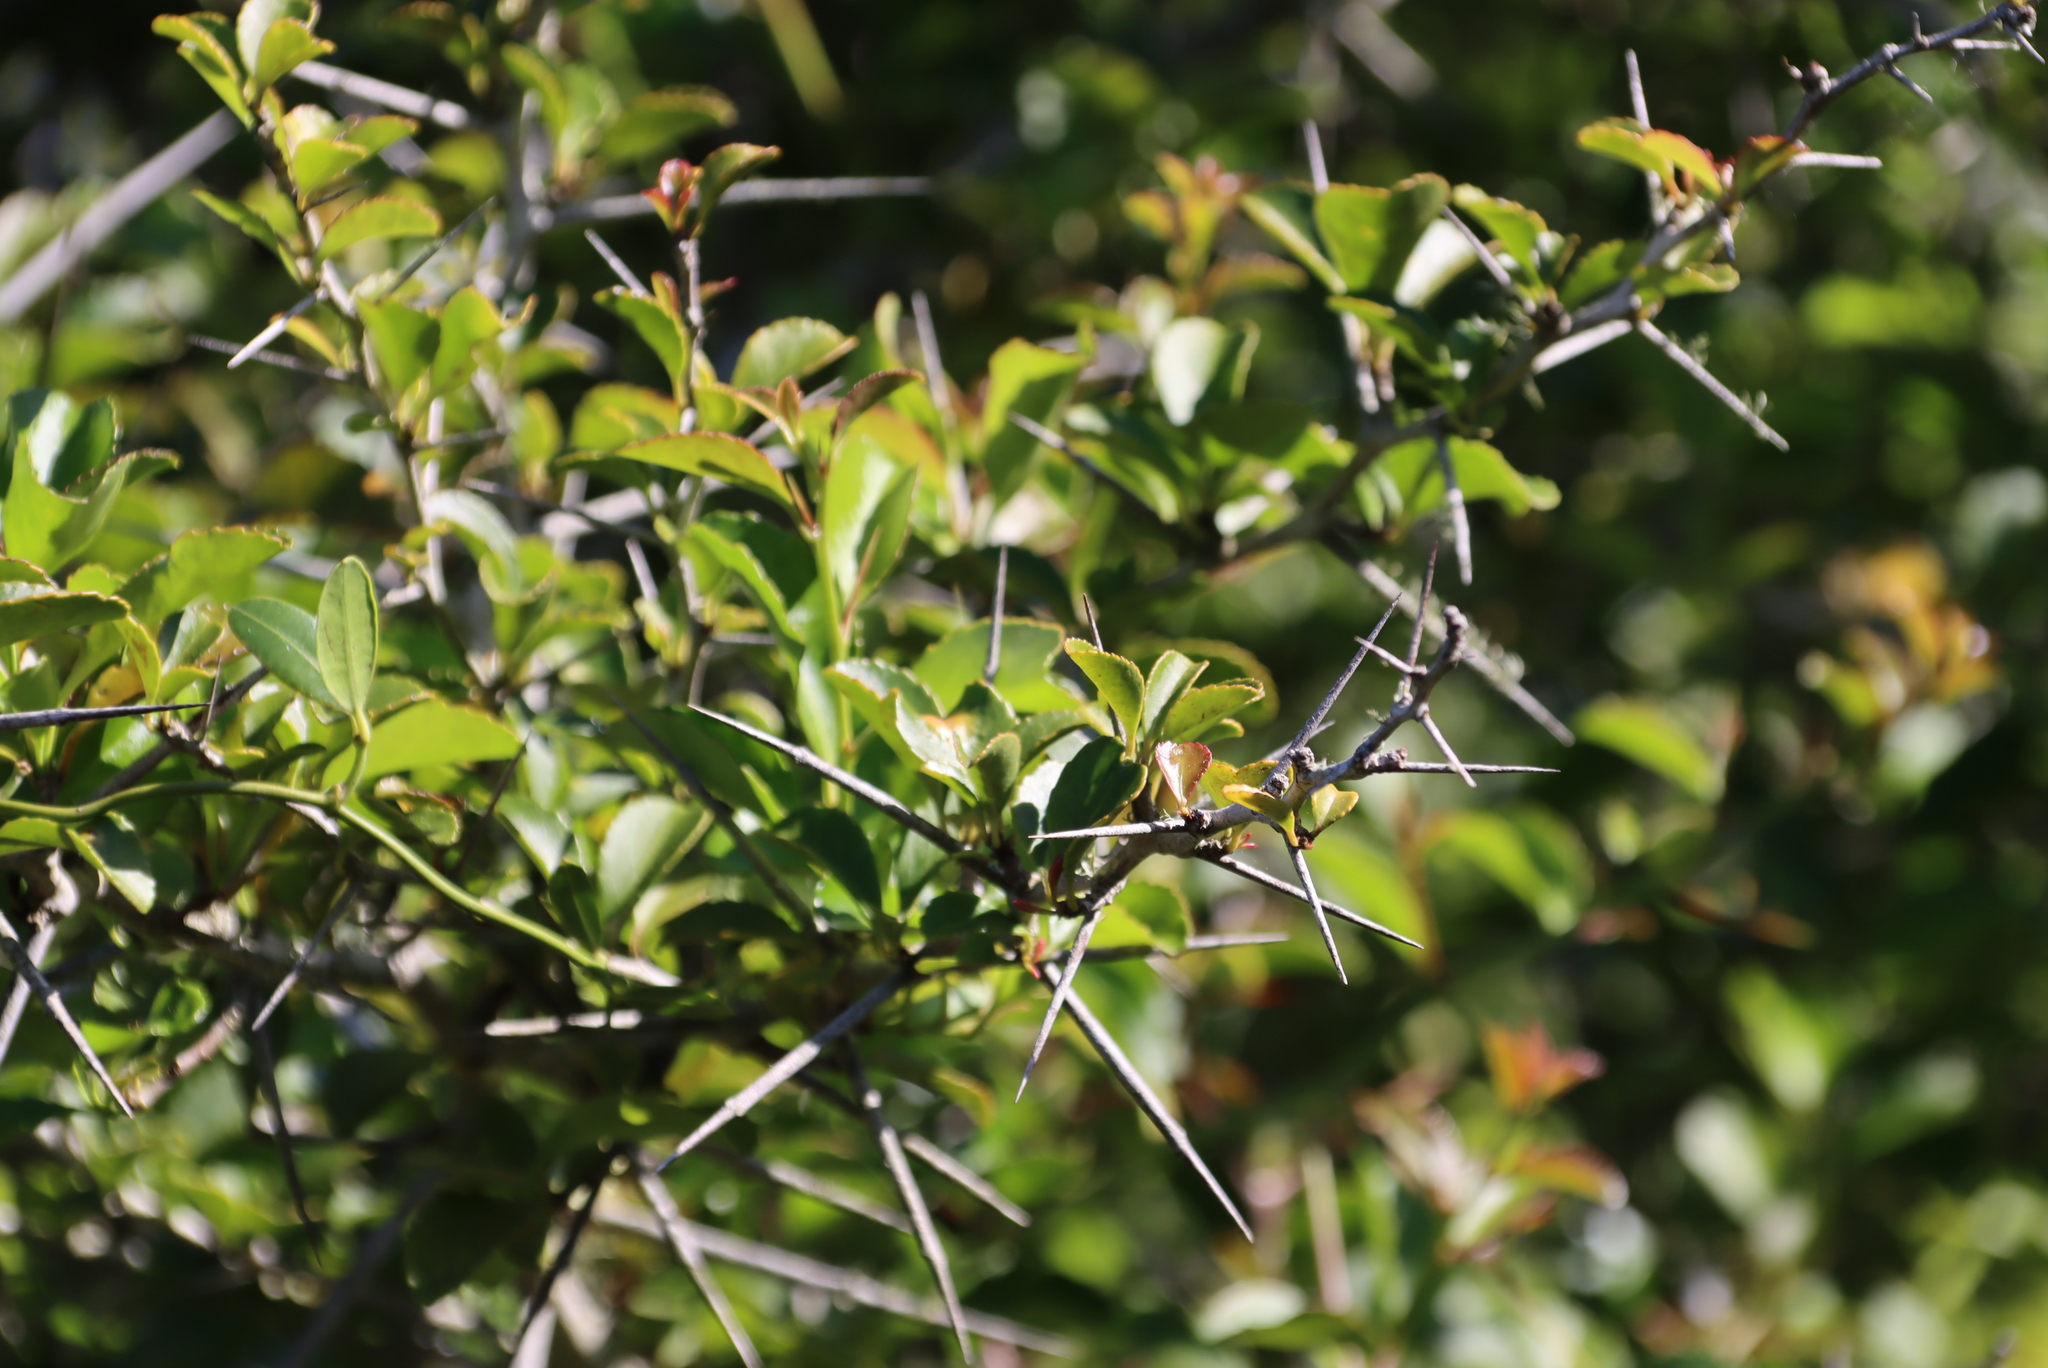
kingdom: Plantae
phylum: Tracheophyta
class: Magnoliopsida
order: Celastrales
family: Celastraceae
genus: Gymnosporia
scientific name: Gymnosporia nemorosa
